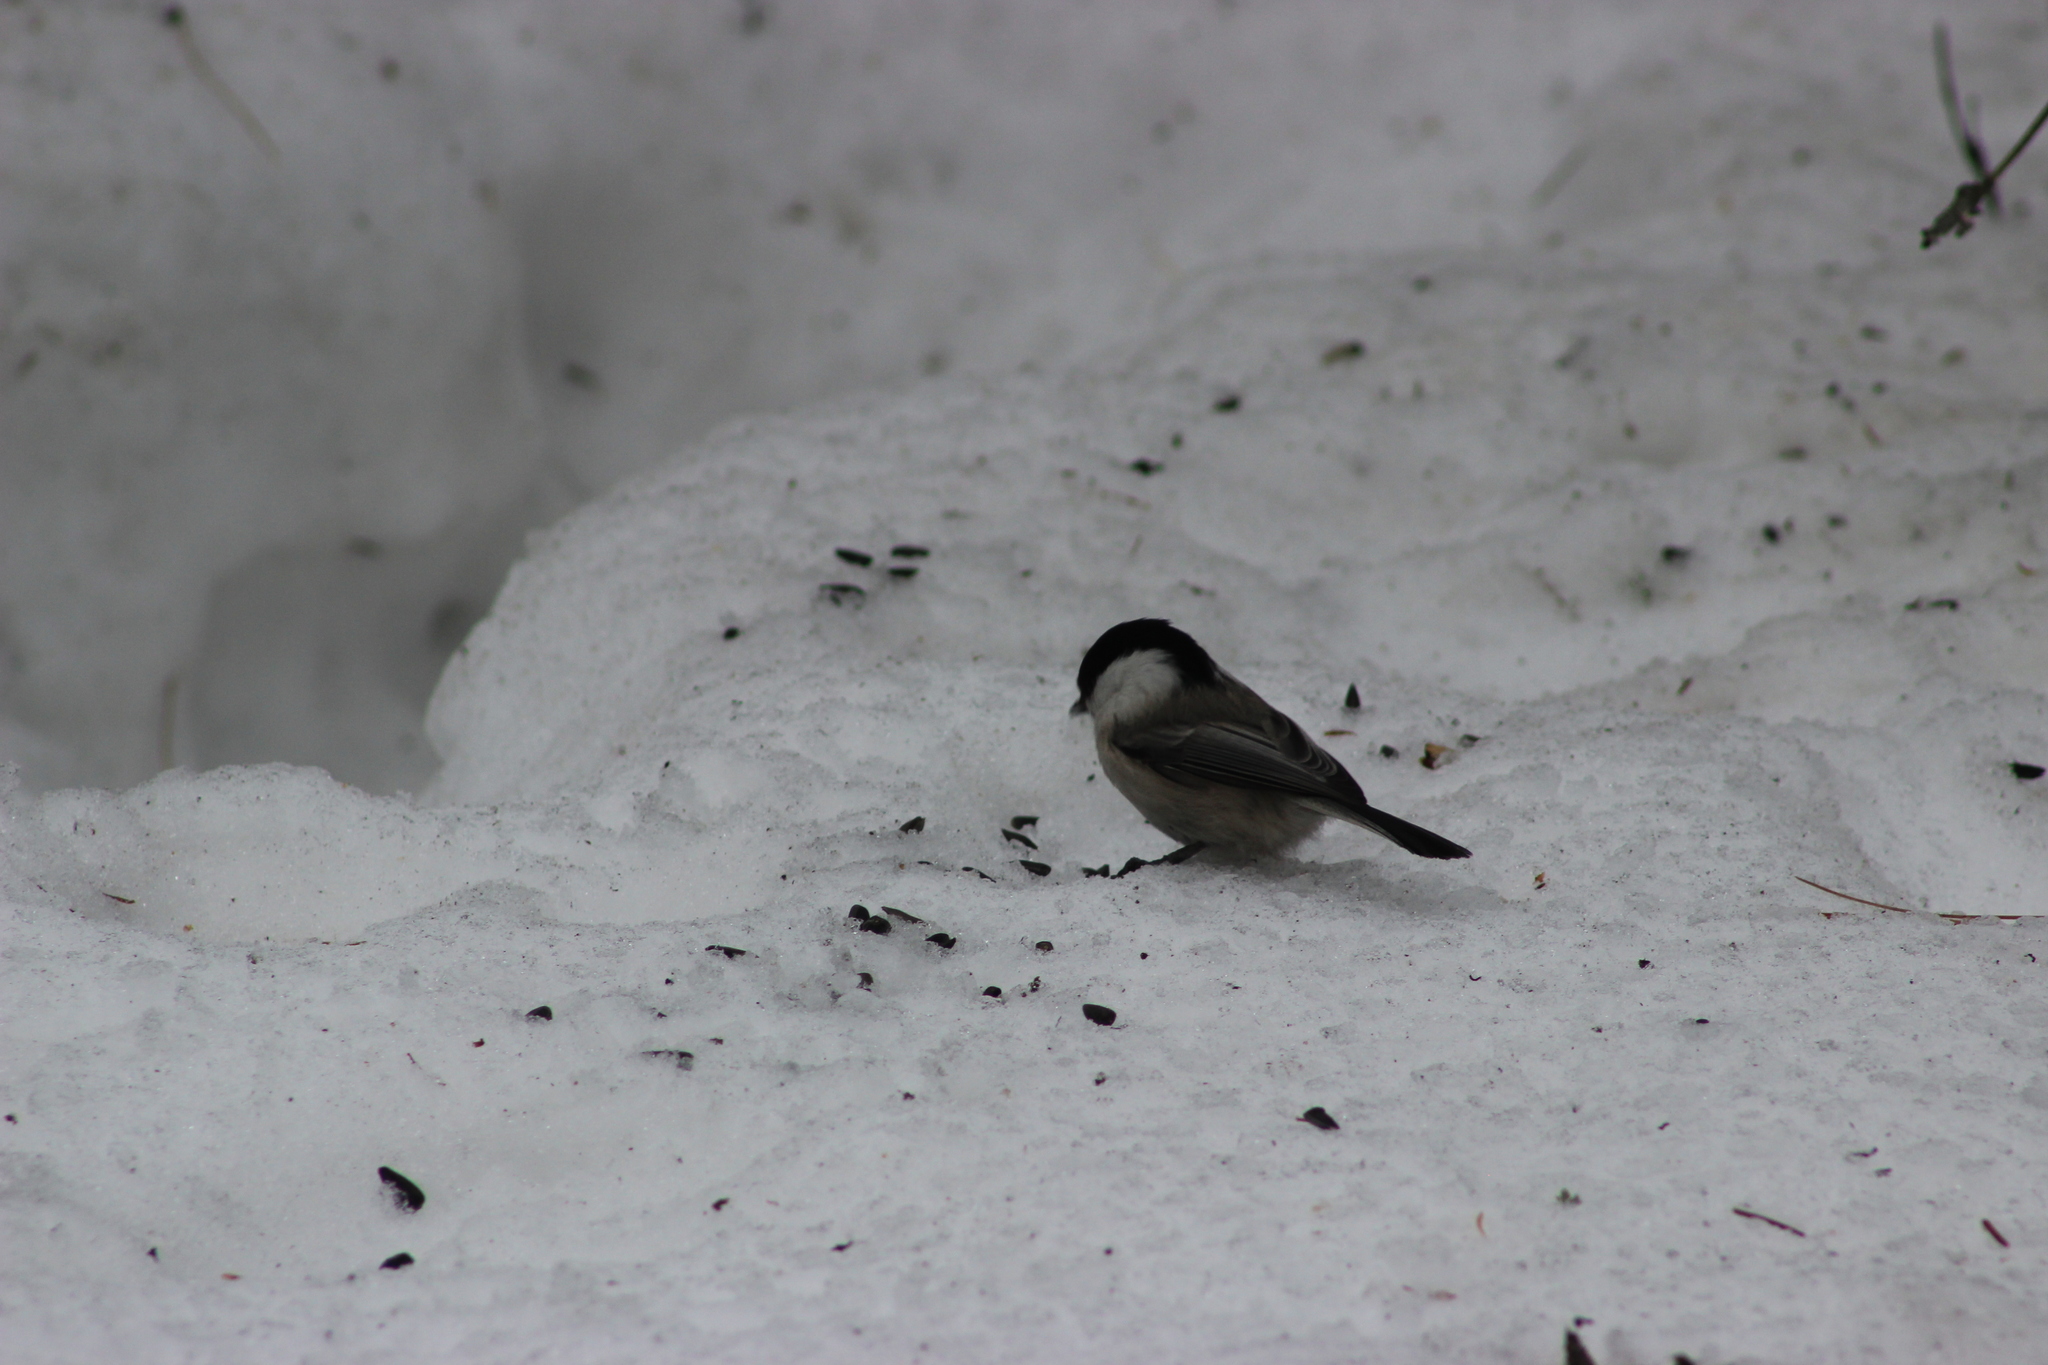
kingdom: Animalia
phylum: Chordata
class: Aves
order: Passeriformes
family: Paridae
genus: Poecile
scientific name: Poecile montanus
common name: Willow tit
